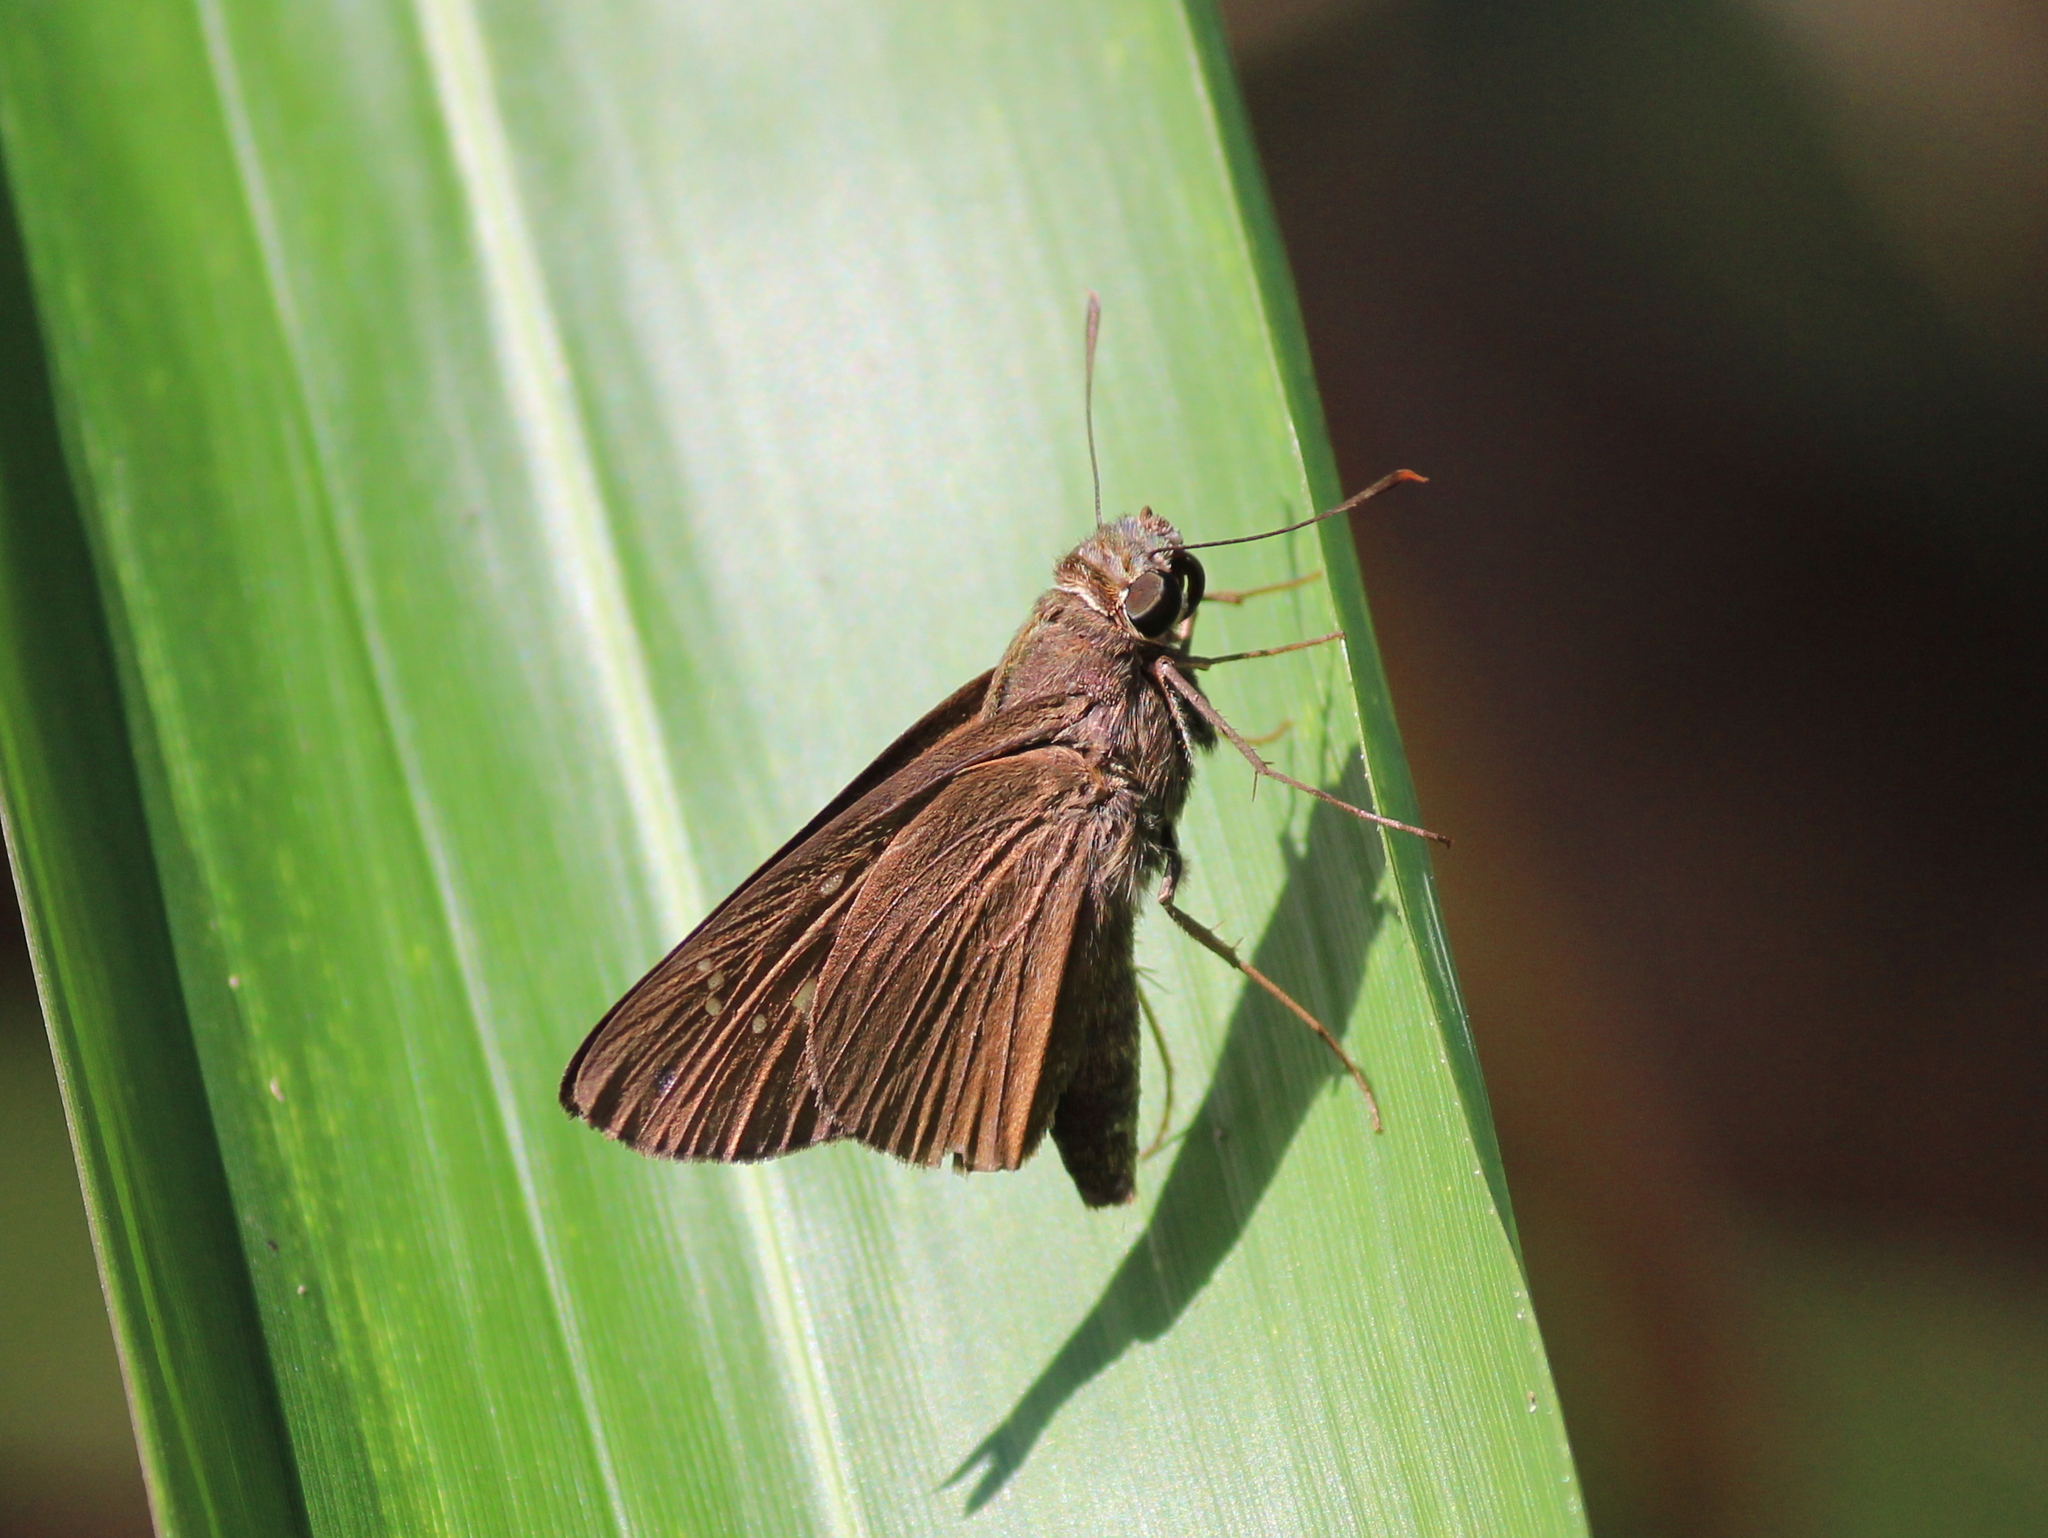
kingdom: Animalia
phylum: Arthropoda
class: Insecta
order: Lepidoptera
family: Hesperiidae
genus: Baoris
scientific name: Baoris farri
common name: Paintbrush swift
